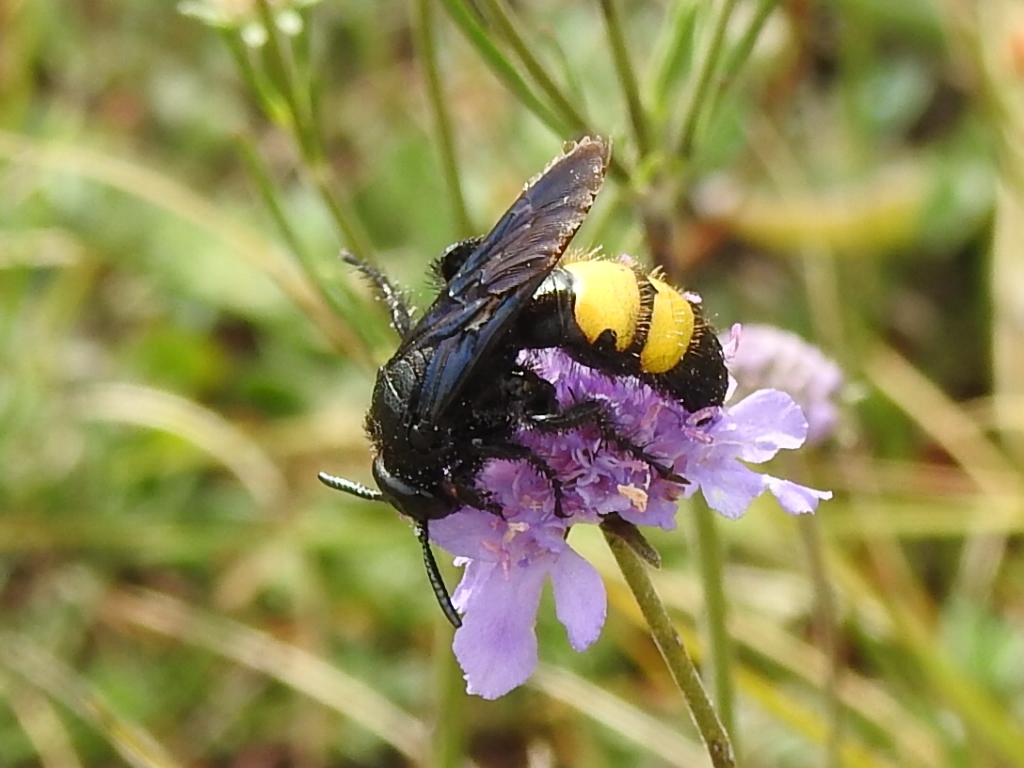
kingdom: Animalia
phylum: Arthropoda
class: Insecta
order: Hymenoptera
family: Scoliidae
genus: Scolia
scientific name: Scolia hirta
